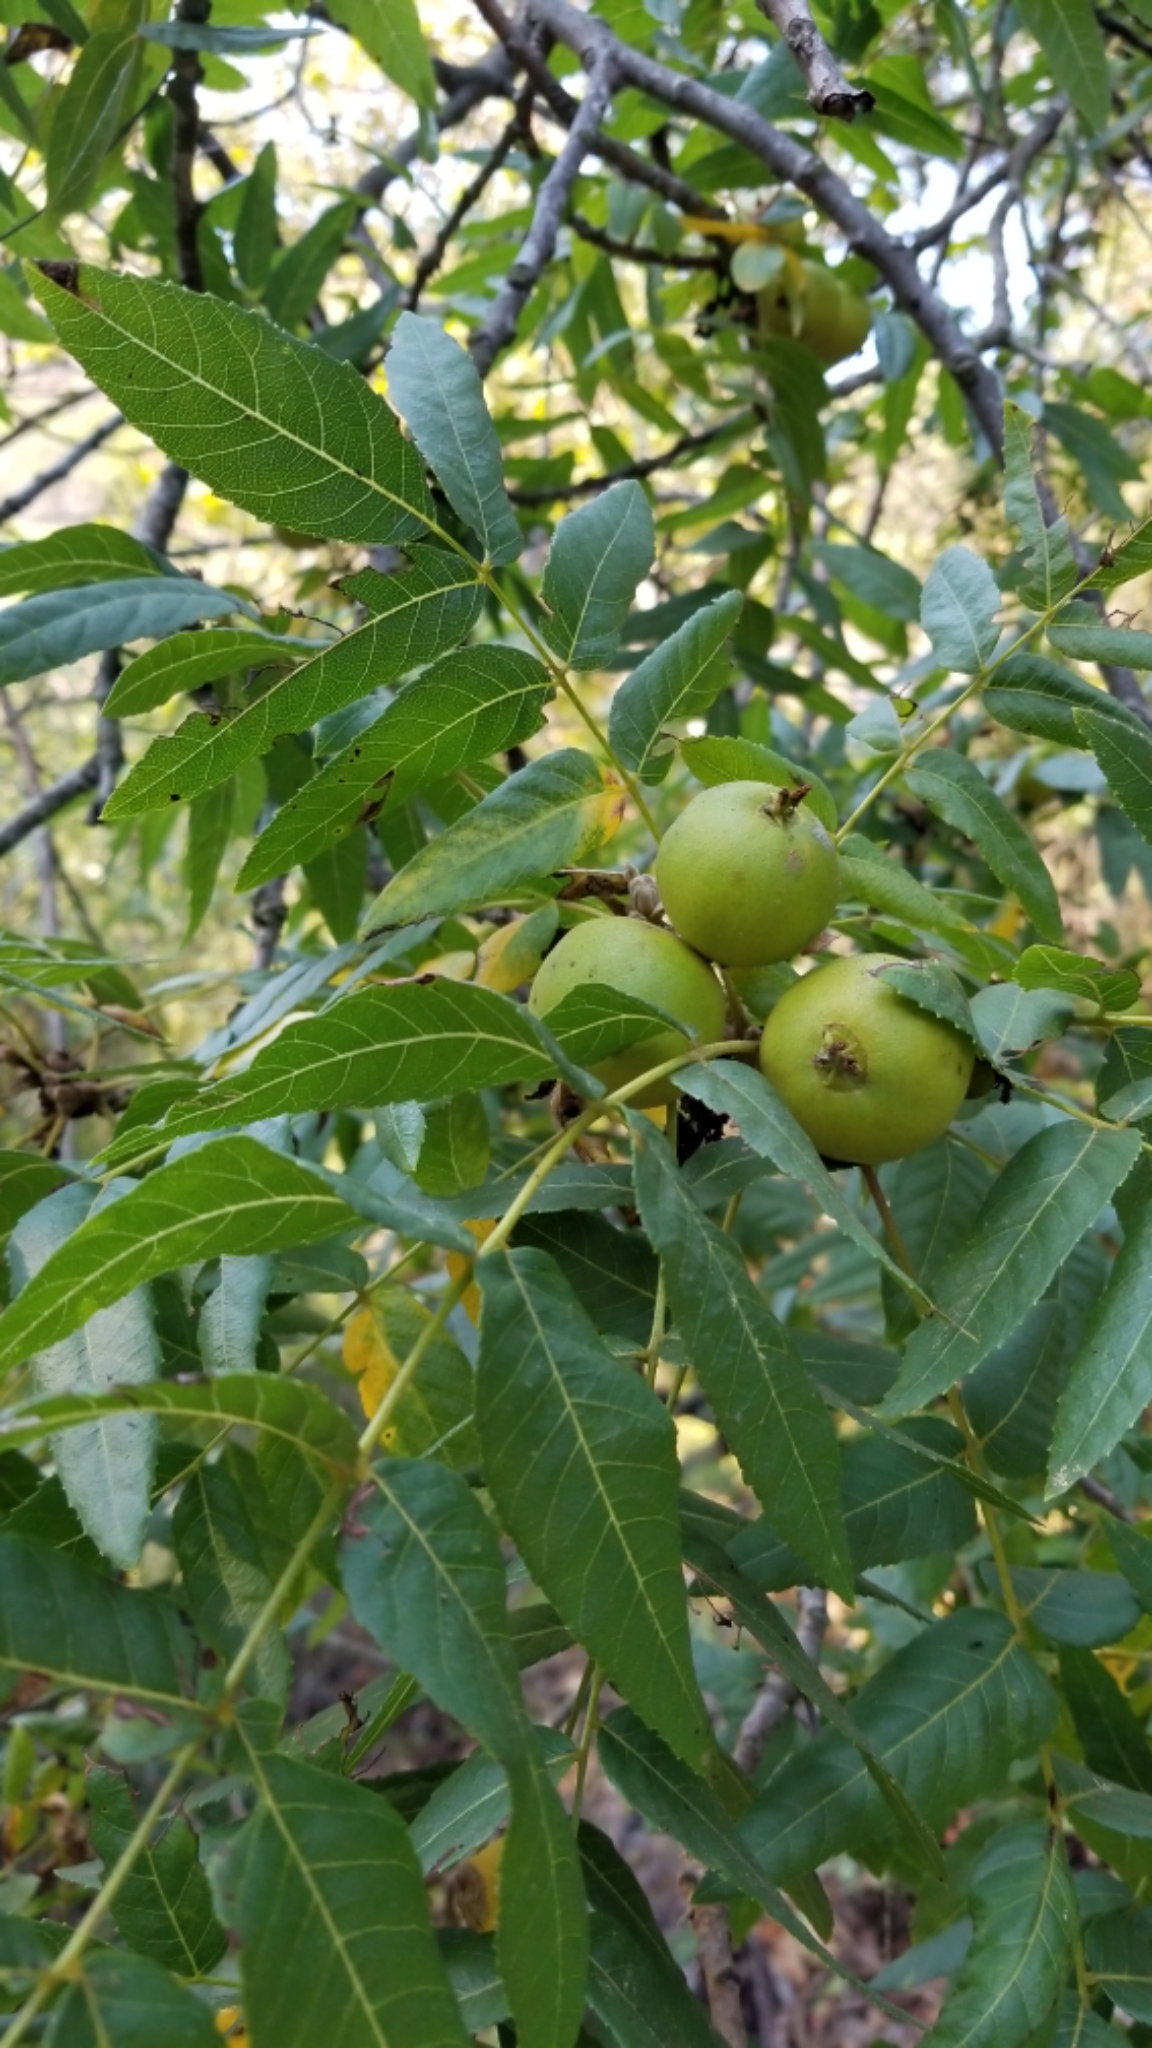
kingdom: Plantae
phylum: Tracheophyta
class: Magnoliopsida
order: Fagales
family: Juglandaceae
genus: Juglans
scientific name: Juglans californica
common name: Southern california black walnut
